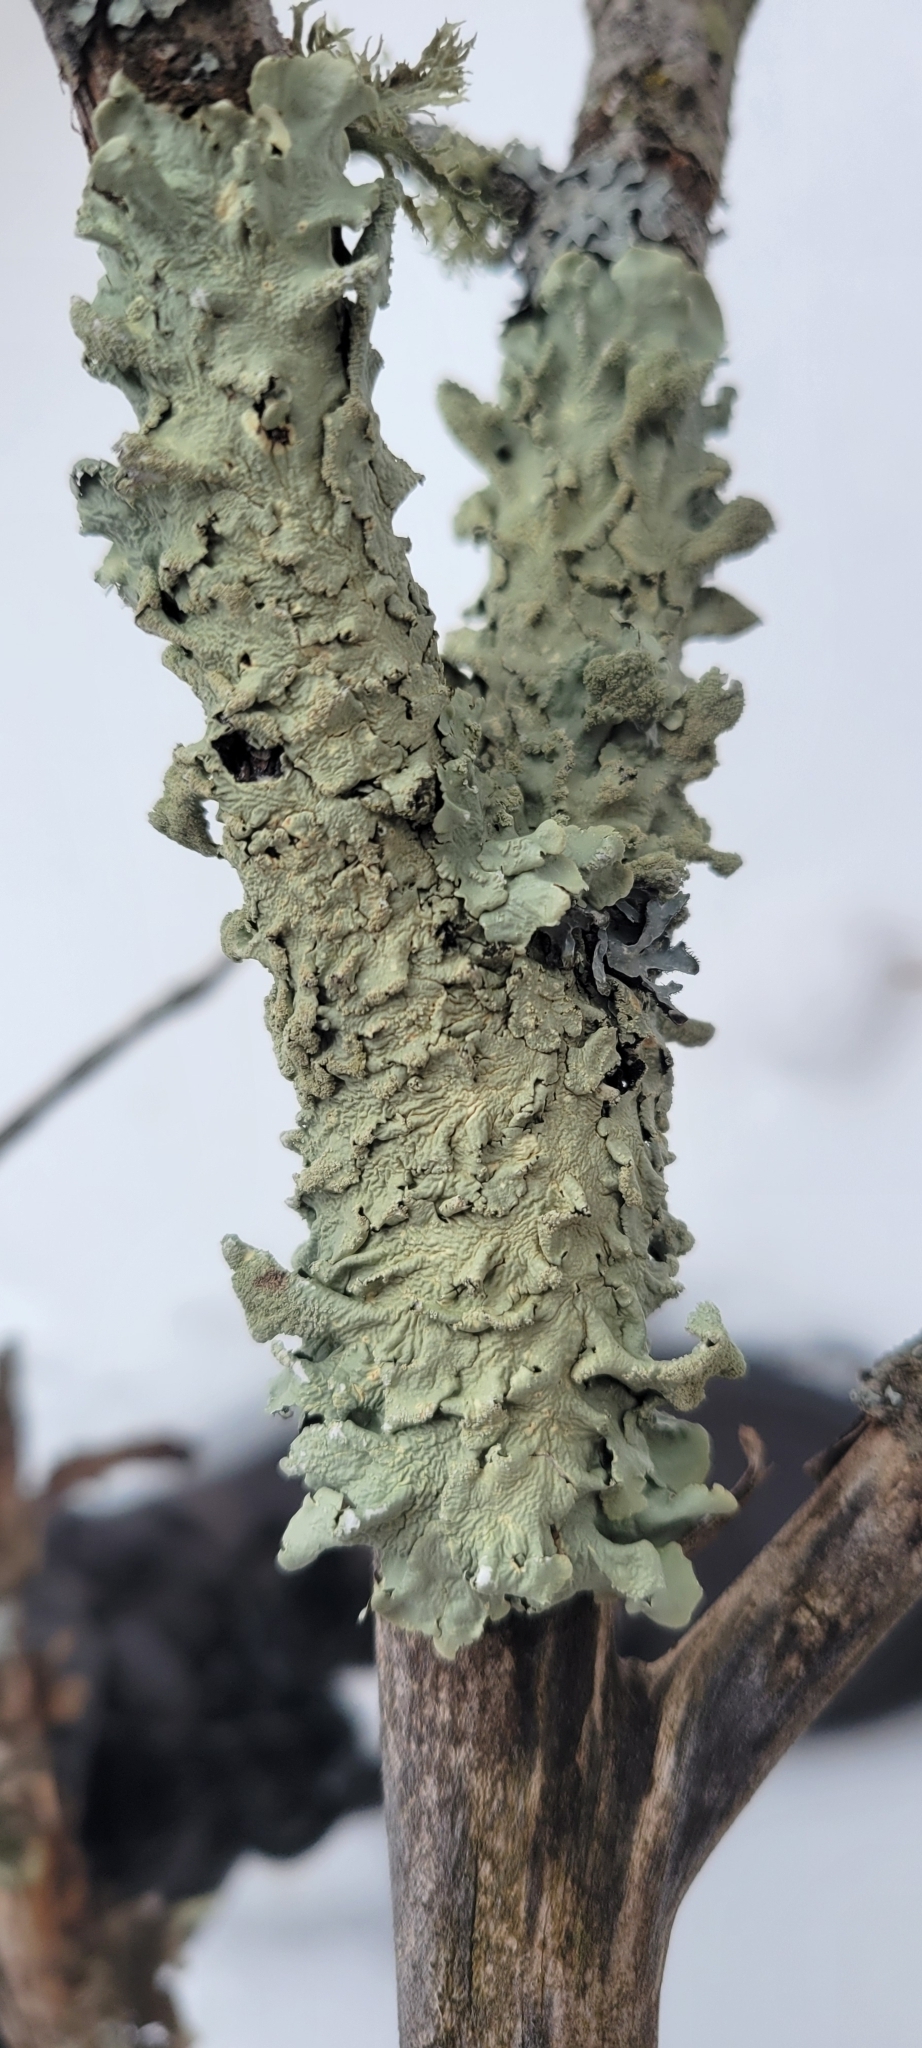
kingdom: Fungi
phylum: Ascomycota
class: Lecanoromycetes
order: Lecanorales
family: Parmeliaceae
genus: Flavoparmelia
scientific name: Flavoparmelia caperata
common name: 40-mile per hour lichen
